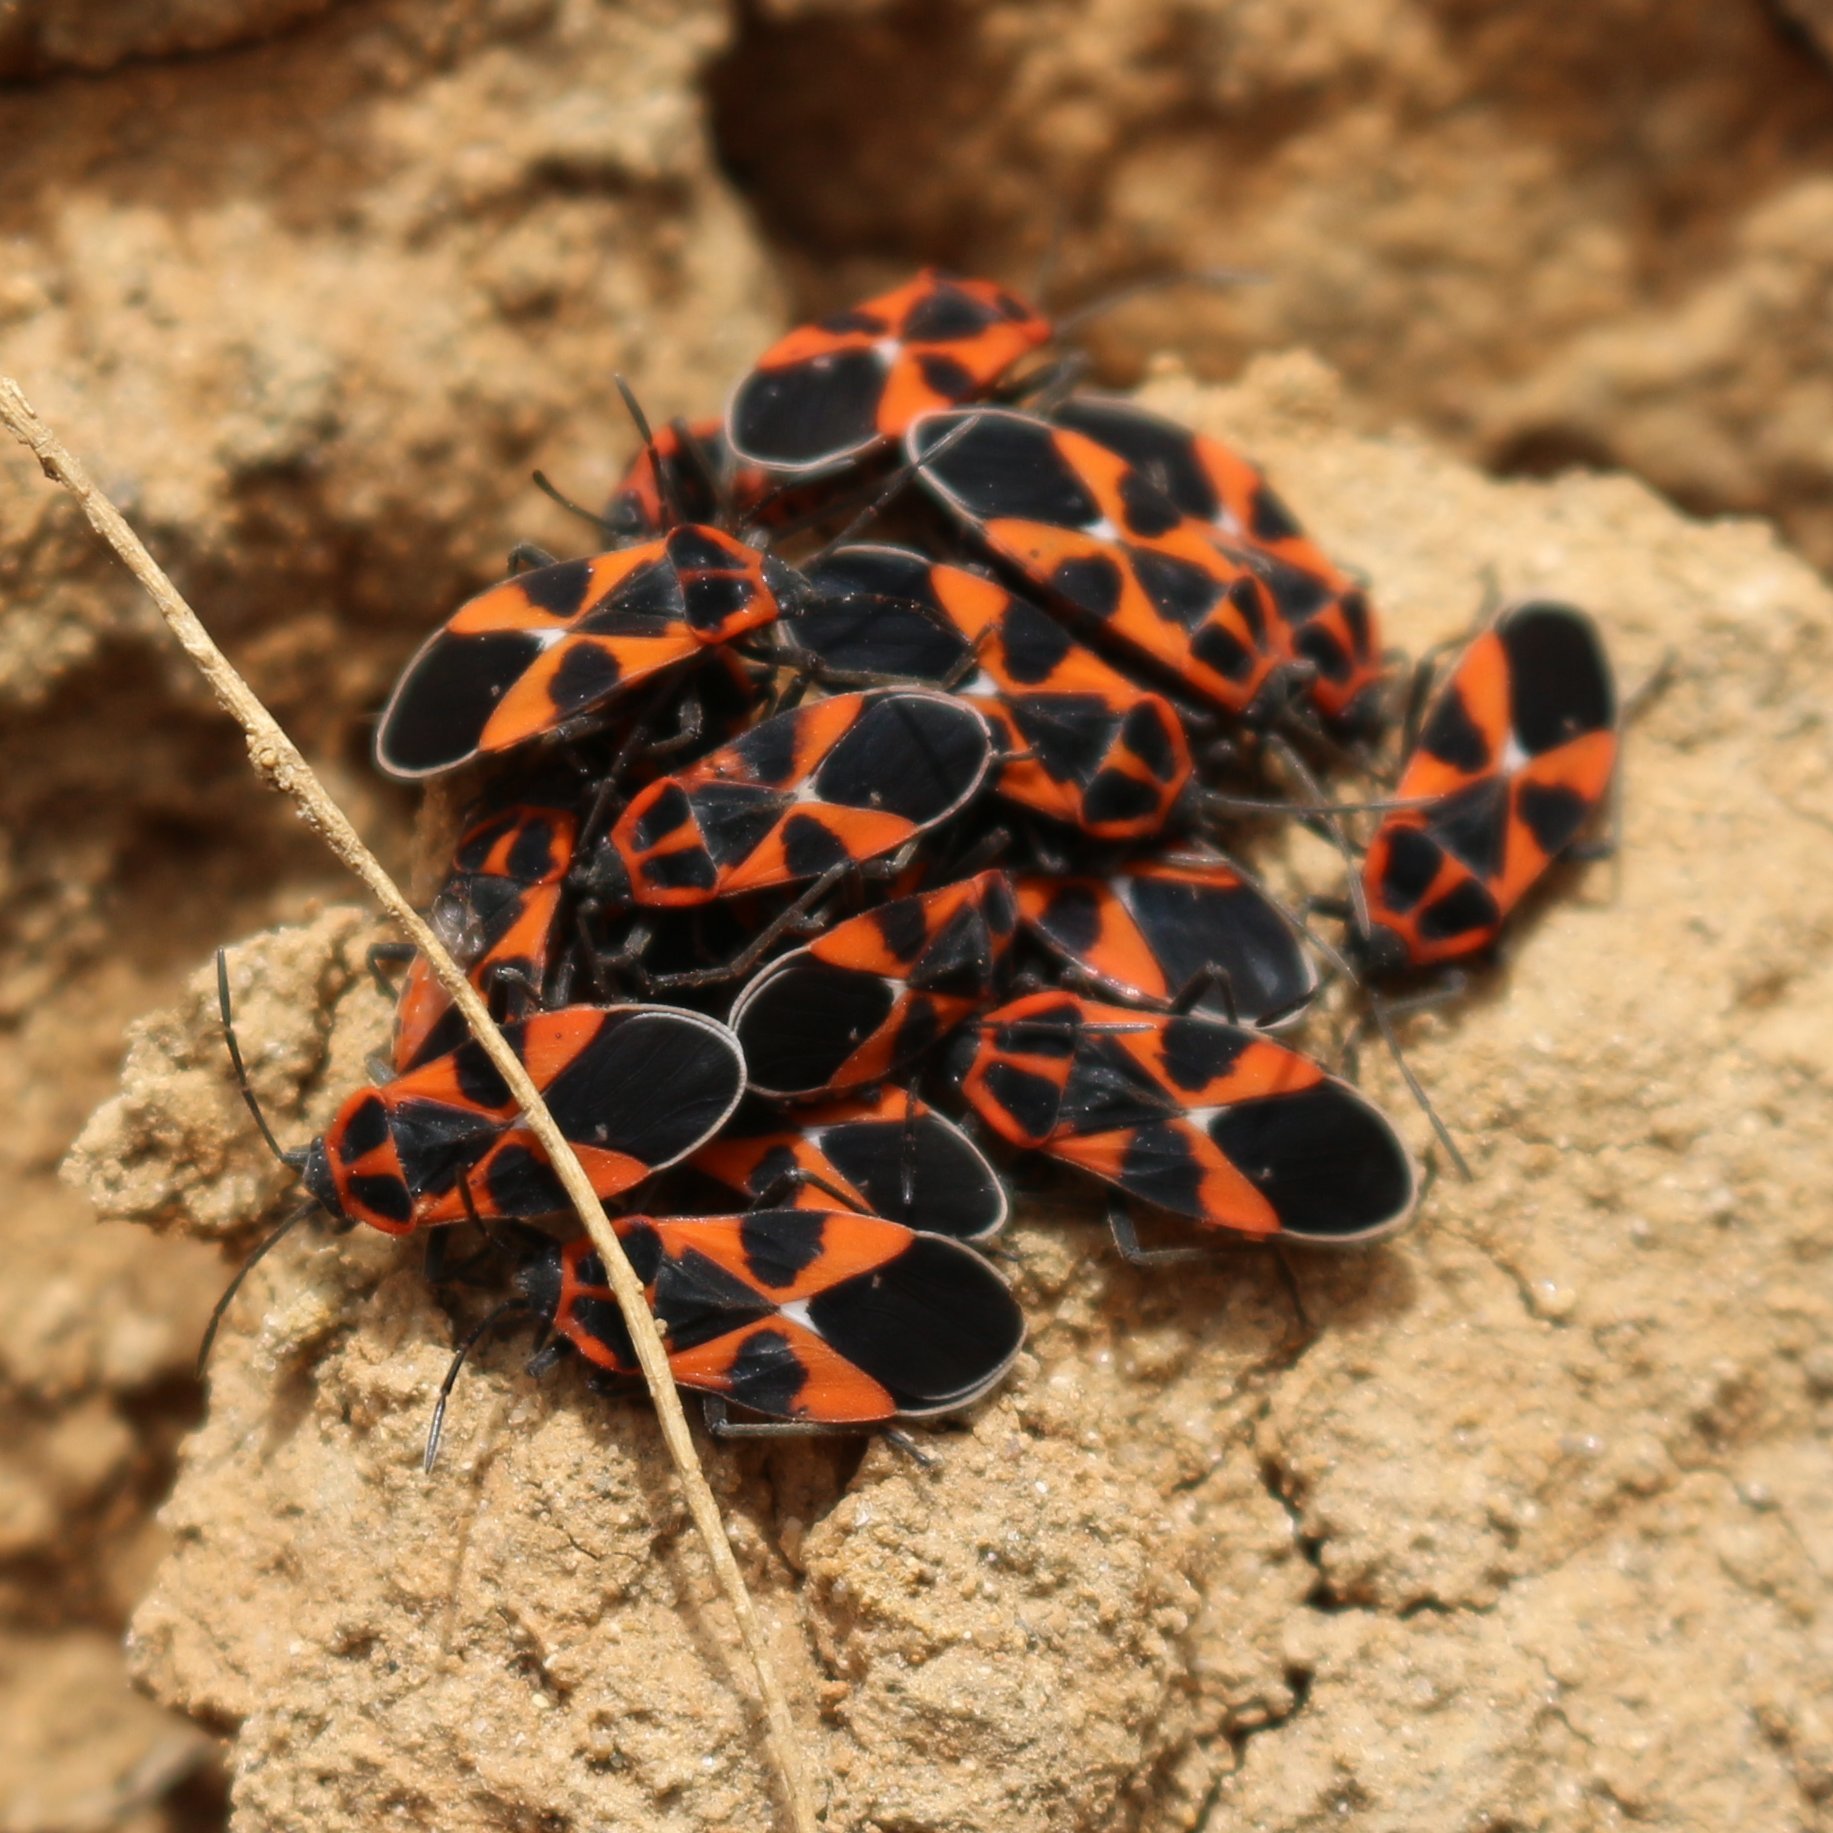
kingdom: Animalia
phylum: Arthropoda
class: Insecta
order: Hemiptera
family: Lygaeidae
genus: Tropidothorax
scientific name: Tropidothorax leucopterus
